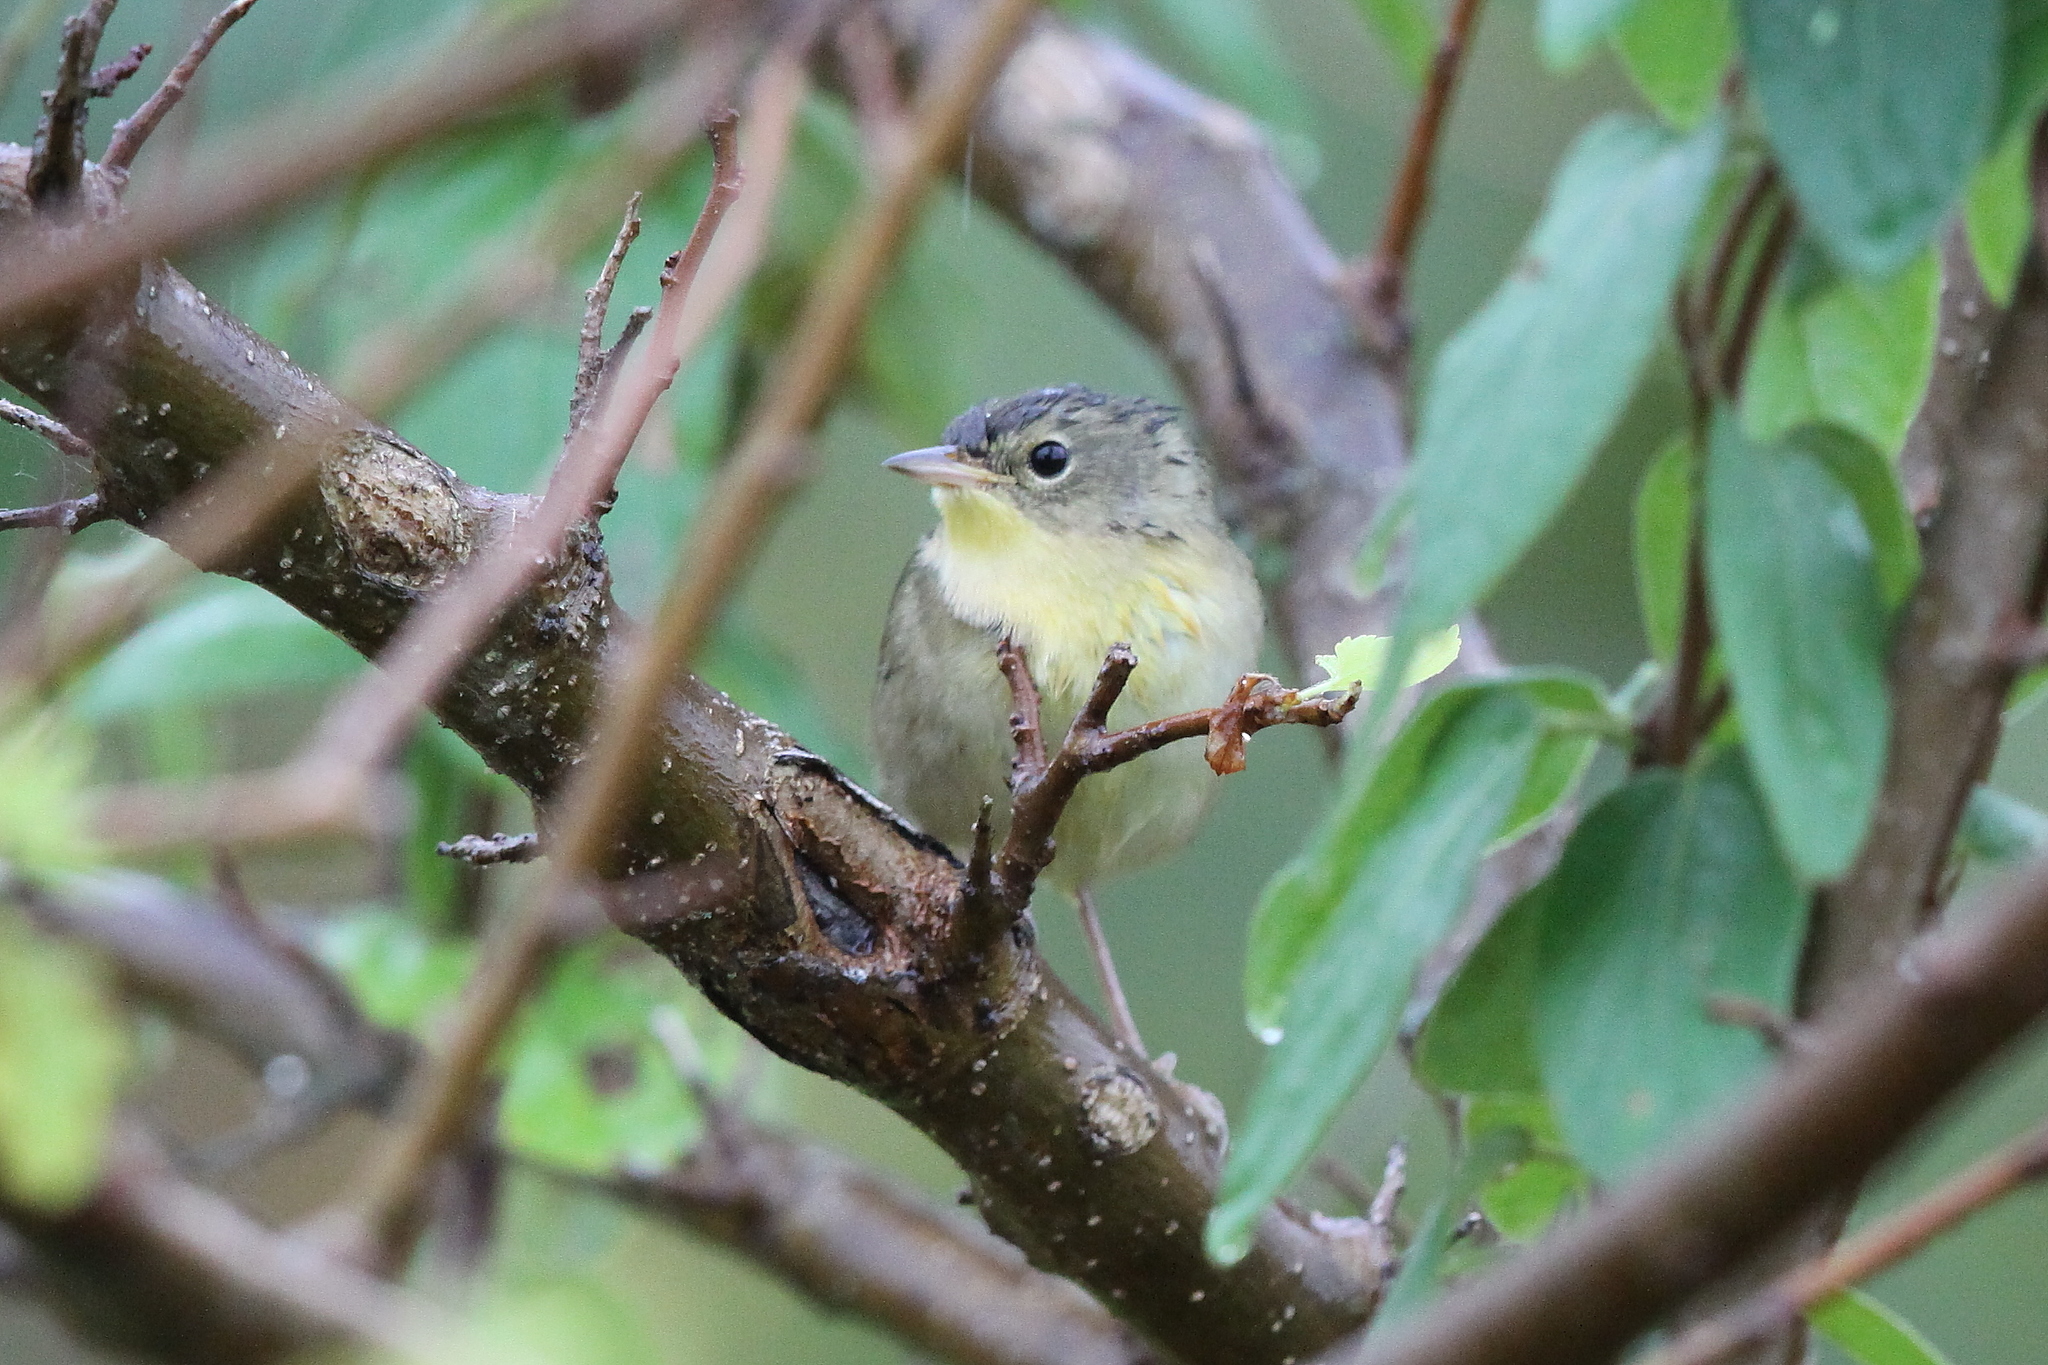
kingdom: Animalia
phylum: Chordata
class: Aves
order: Passeriformes
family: Parulidae
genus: Geothlypis
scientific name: Geothlypis trichas
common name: Common yellowthroat
